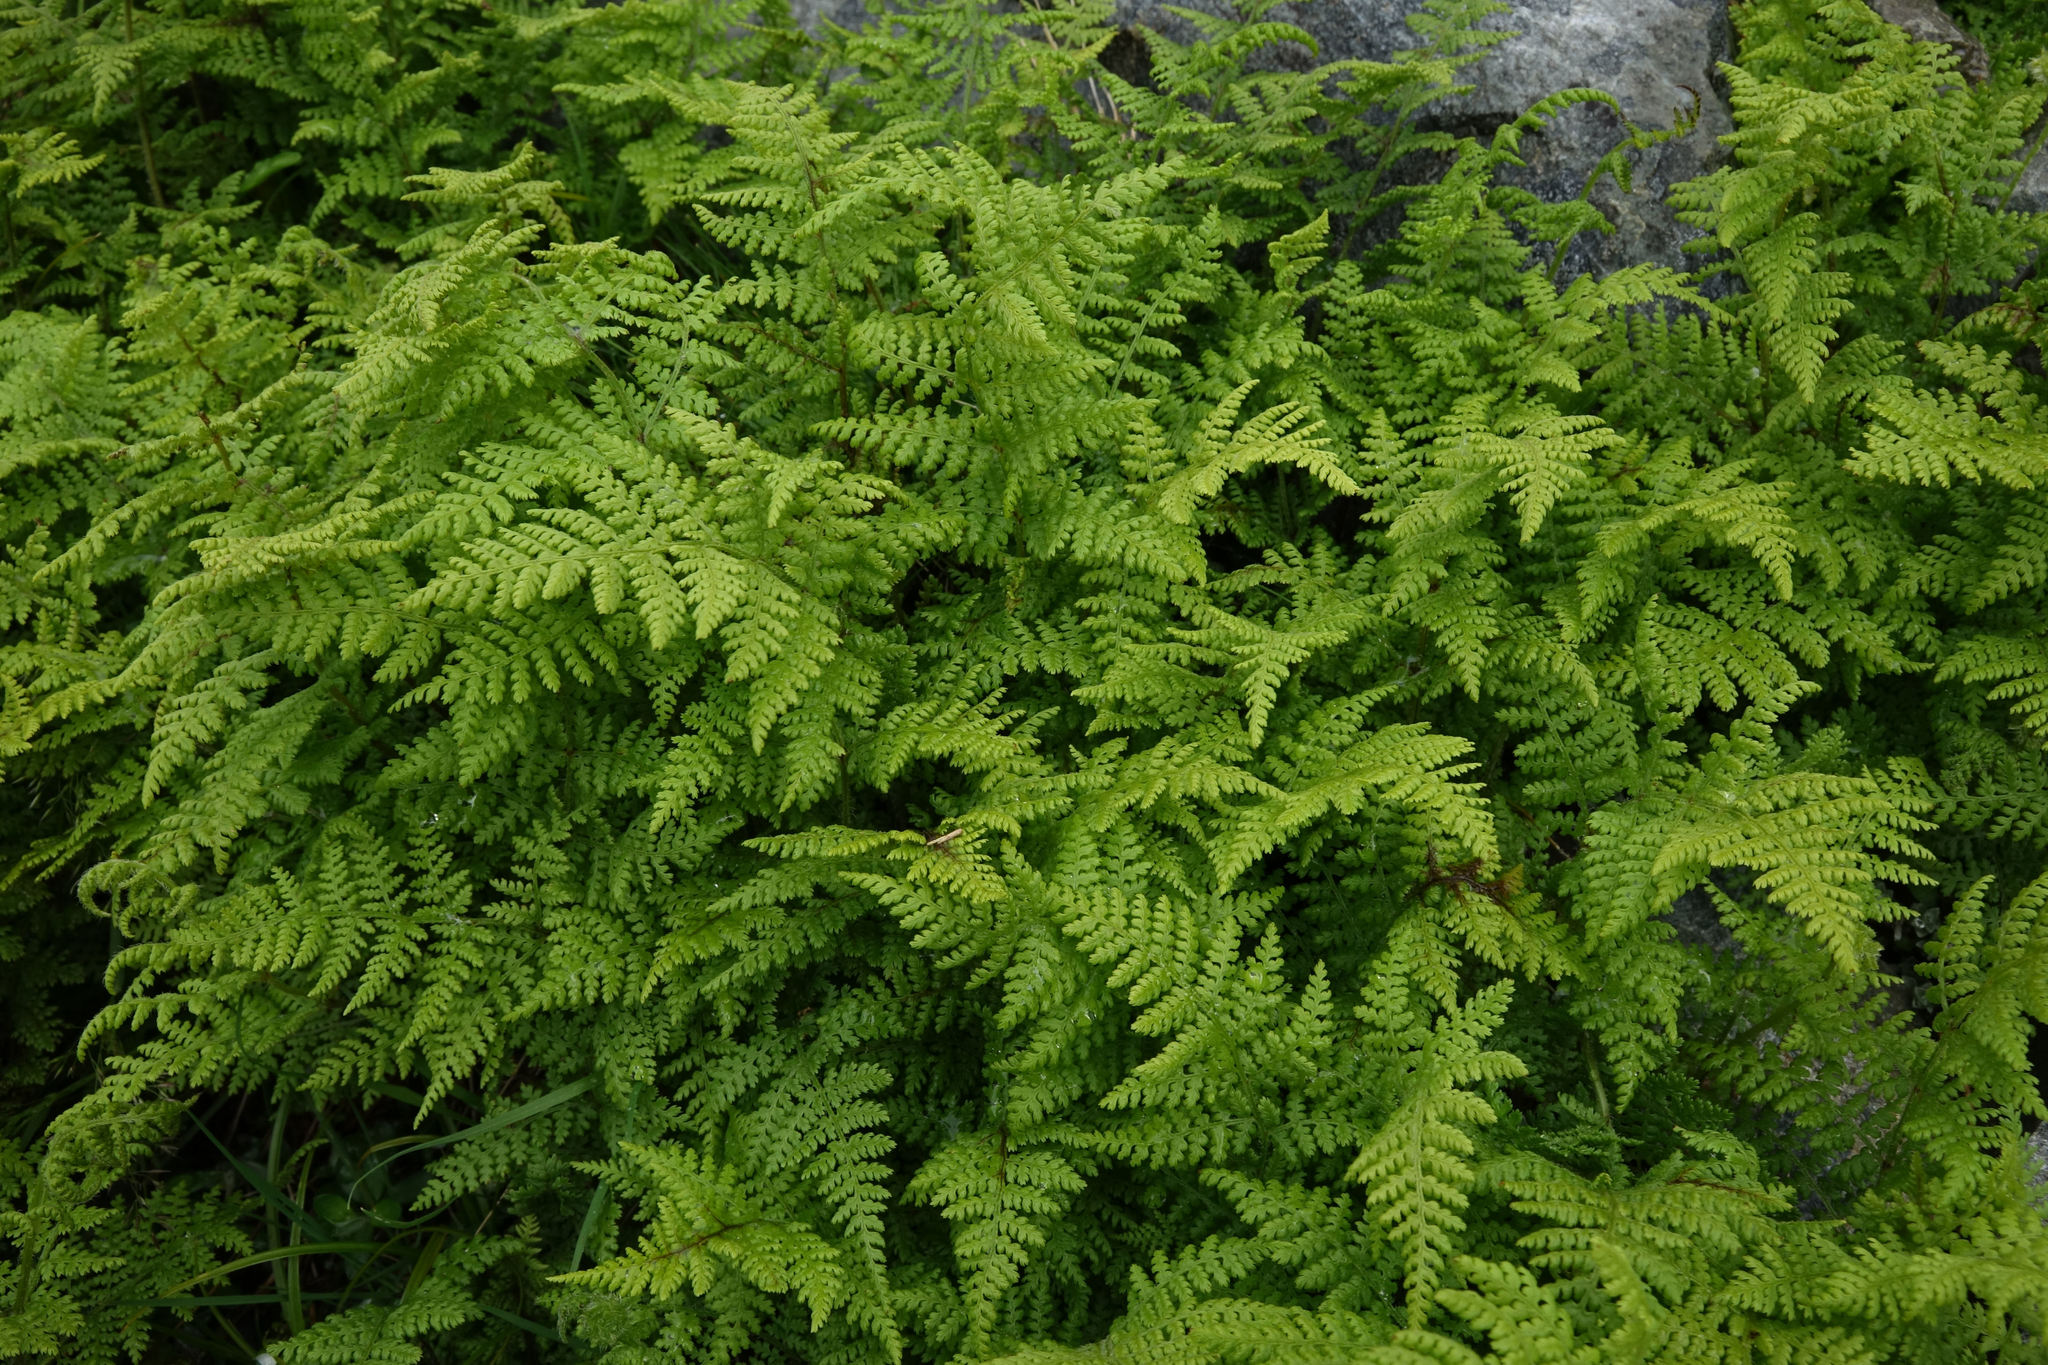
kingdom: Plantae
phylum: Tracheophyta
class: Polypodiopsida
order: Polypodiales
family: Dennstaedtiaceae
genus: Hypolepis
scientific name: Hypolepis millefolium
